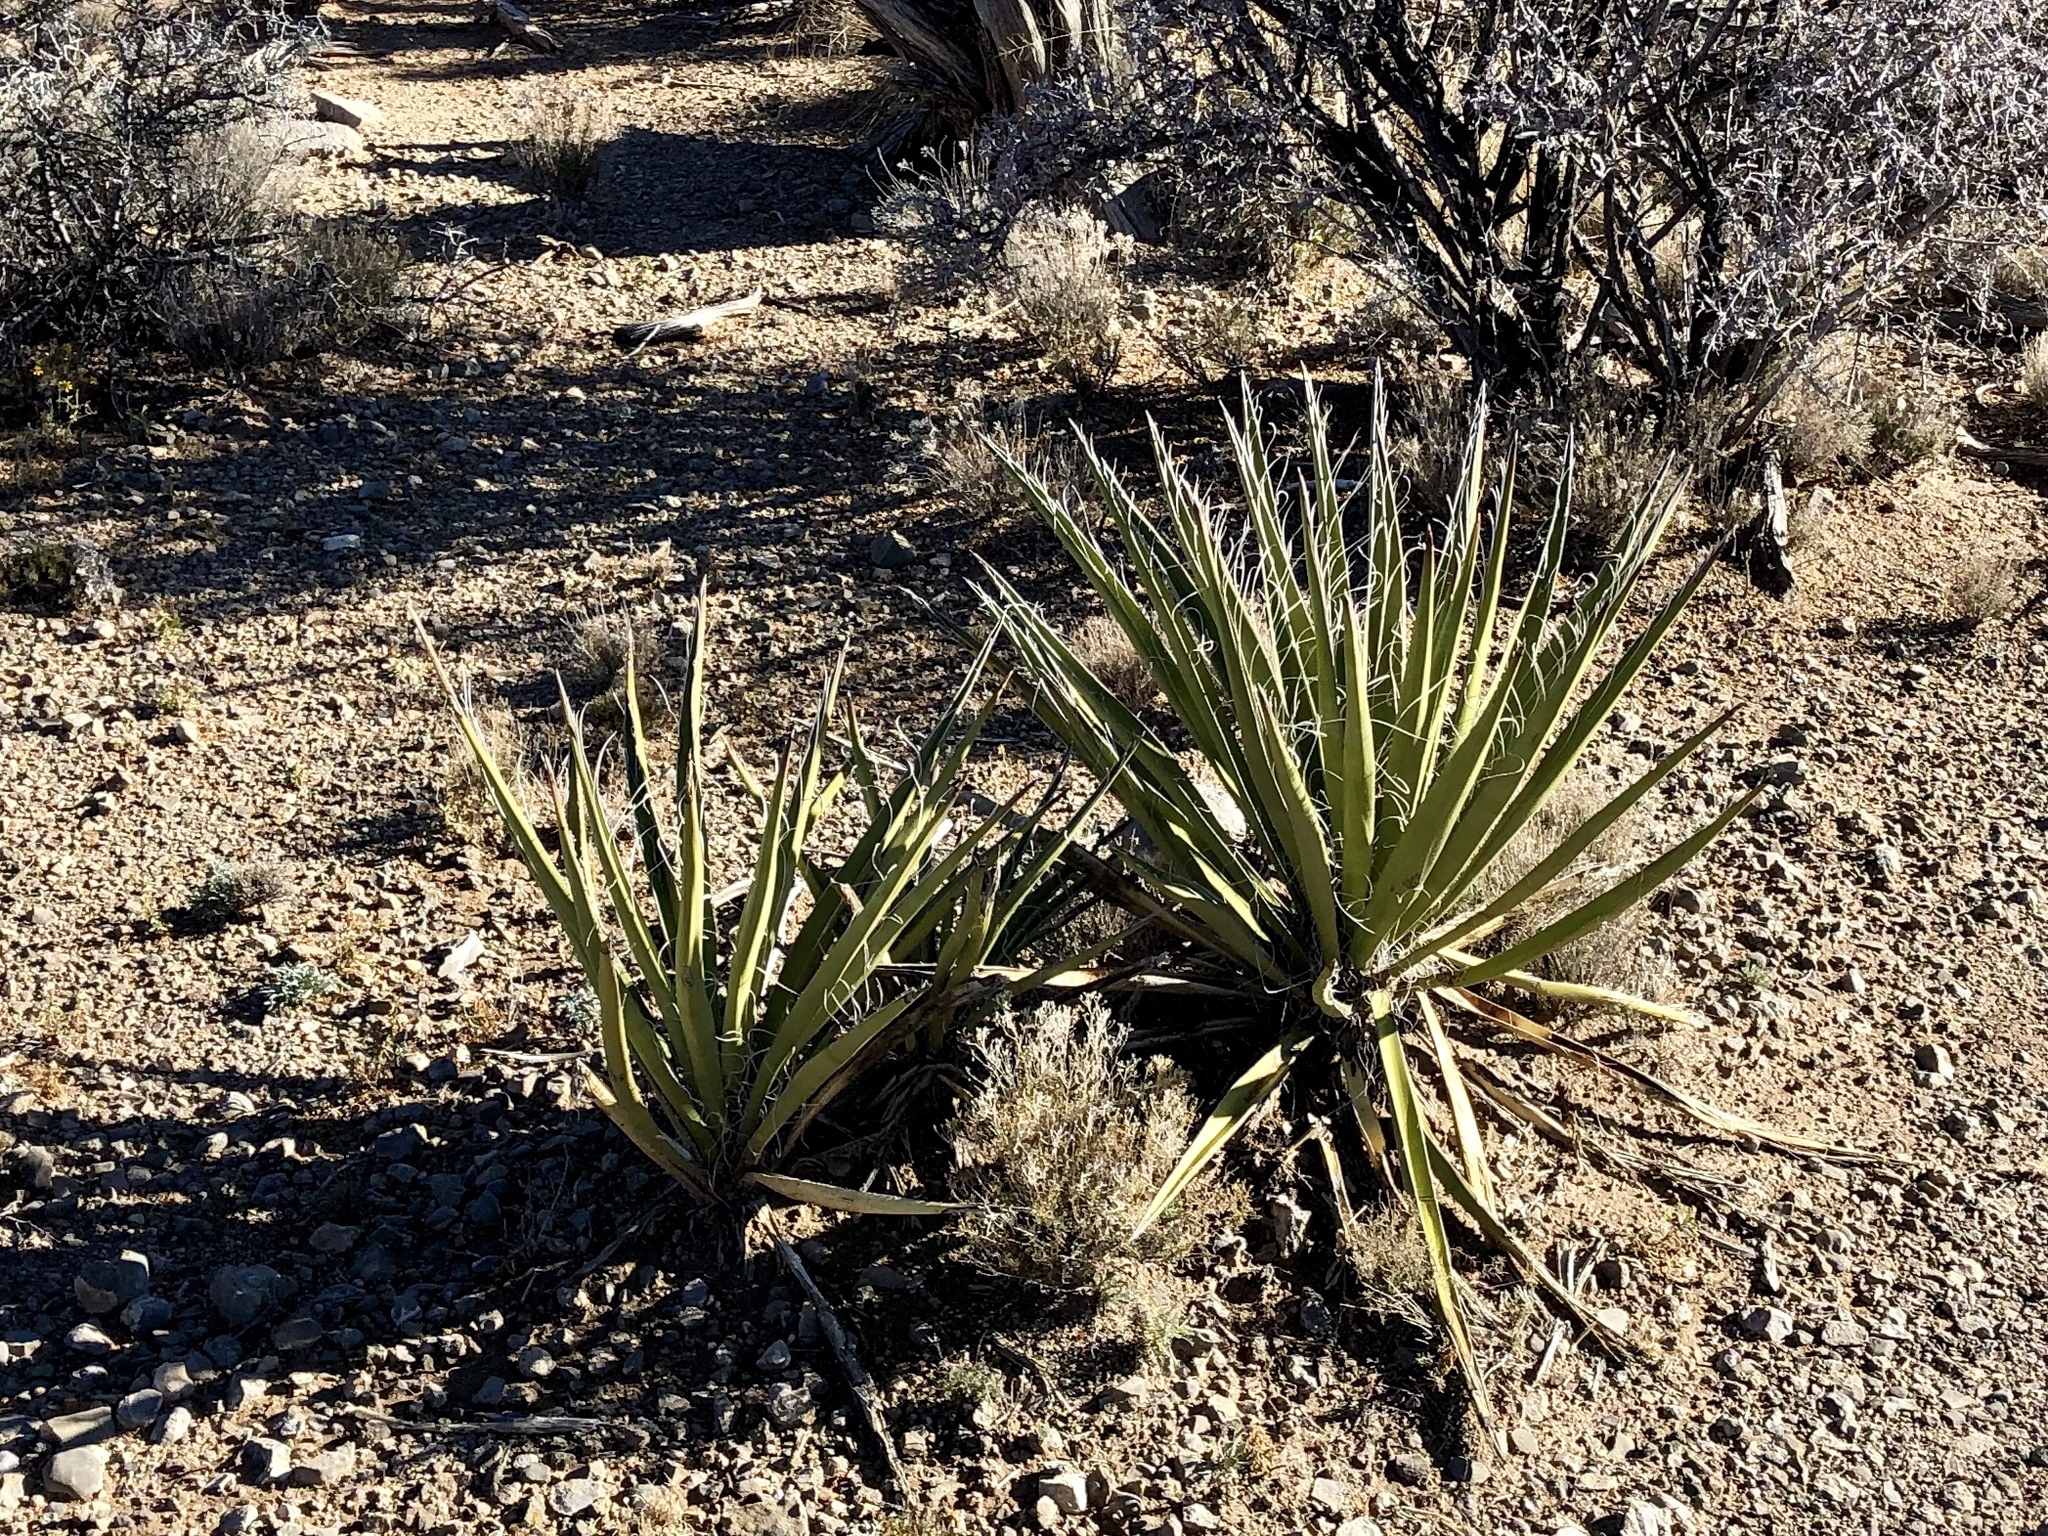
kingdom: Plantae
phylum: Tracheophyta
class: Liliopsida
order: Asparagales
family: Asparagaceae
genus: Yucca
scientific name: Yucca baccata
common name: Banana yucca
